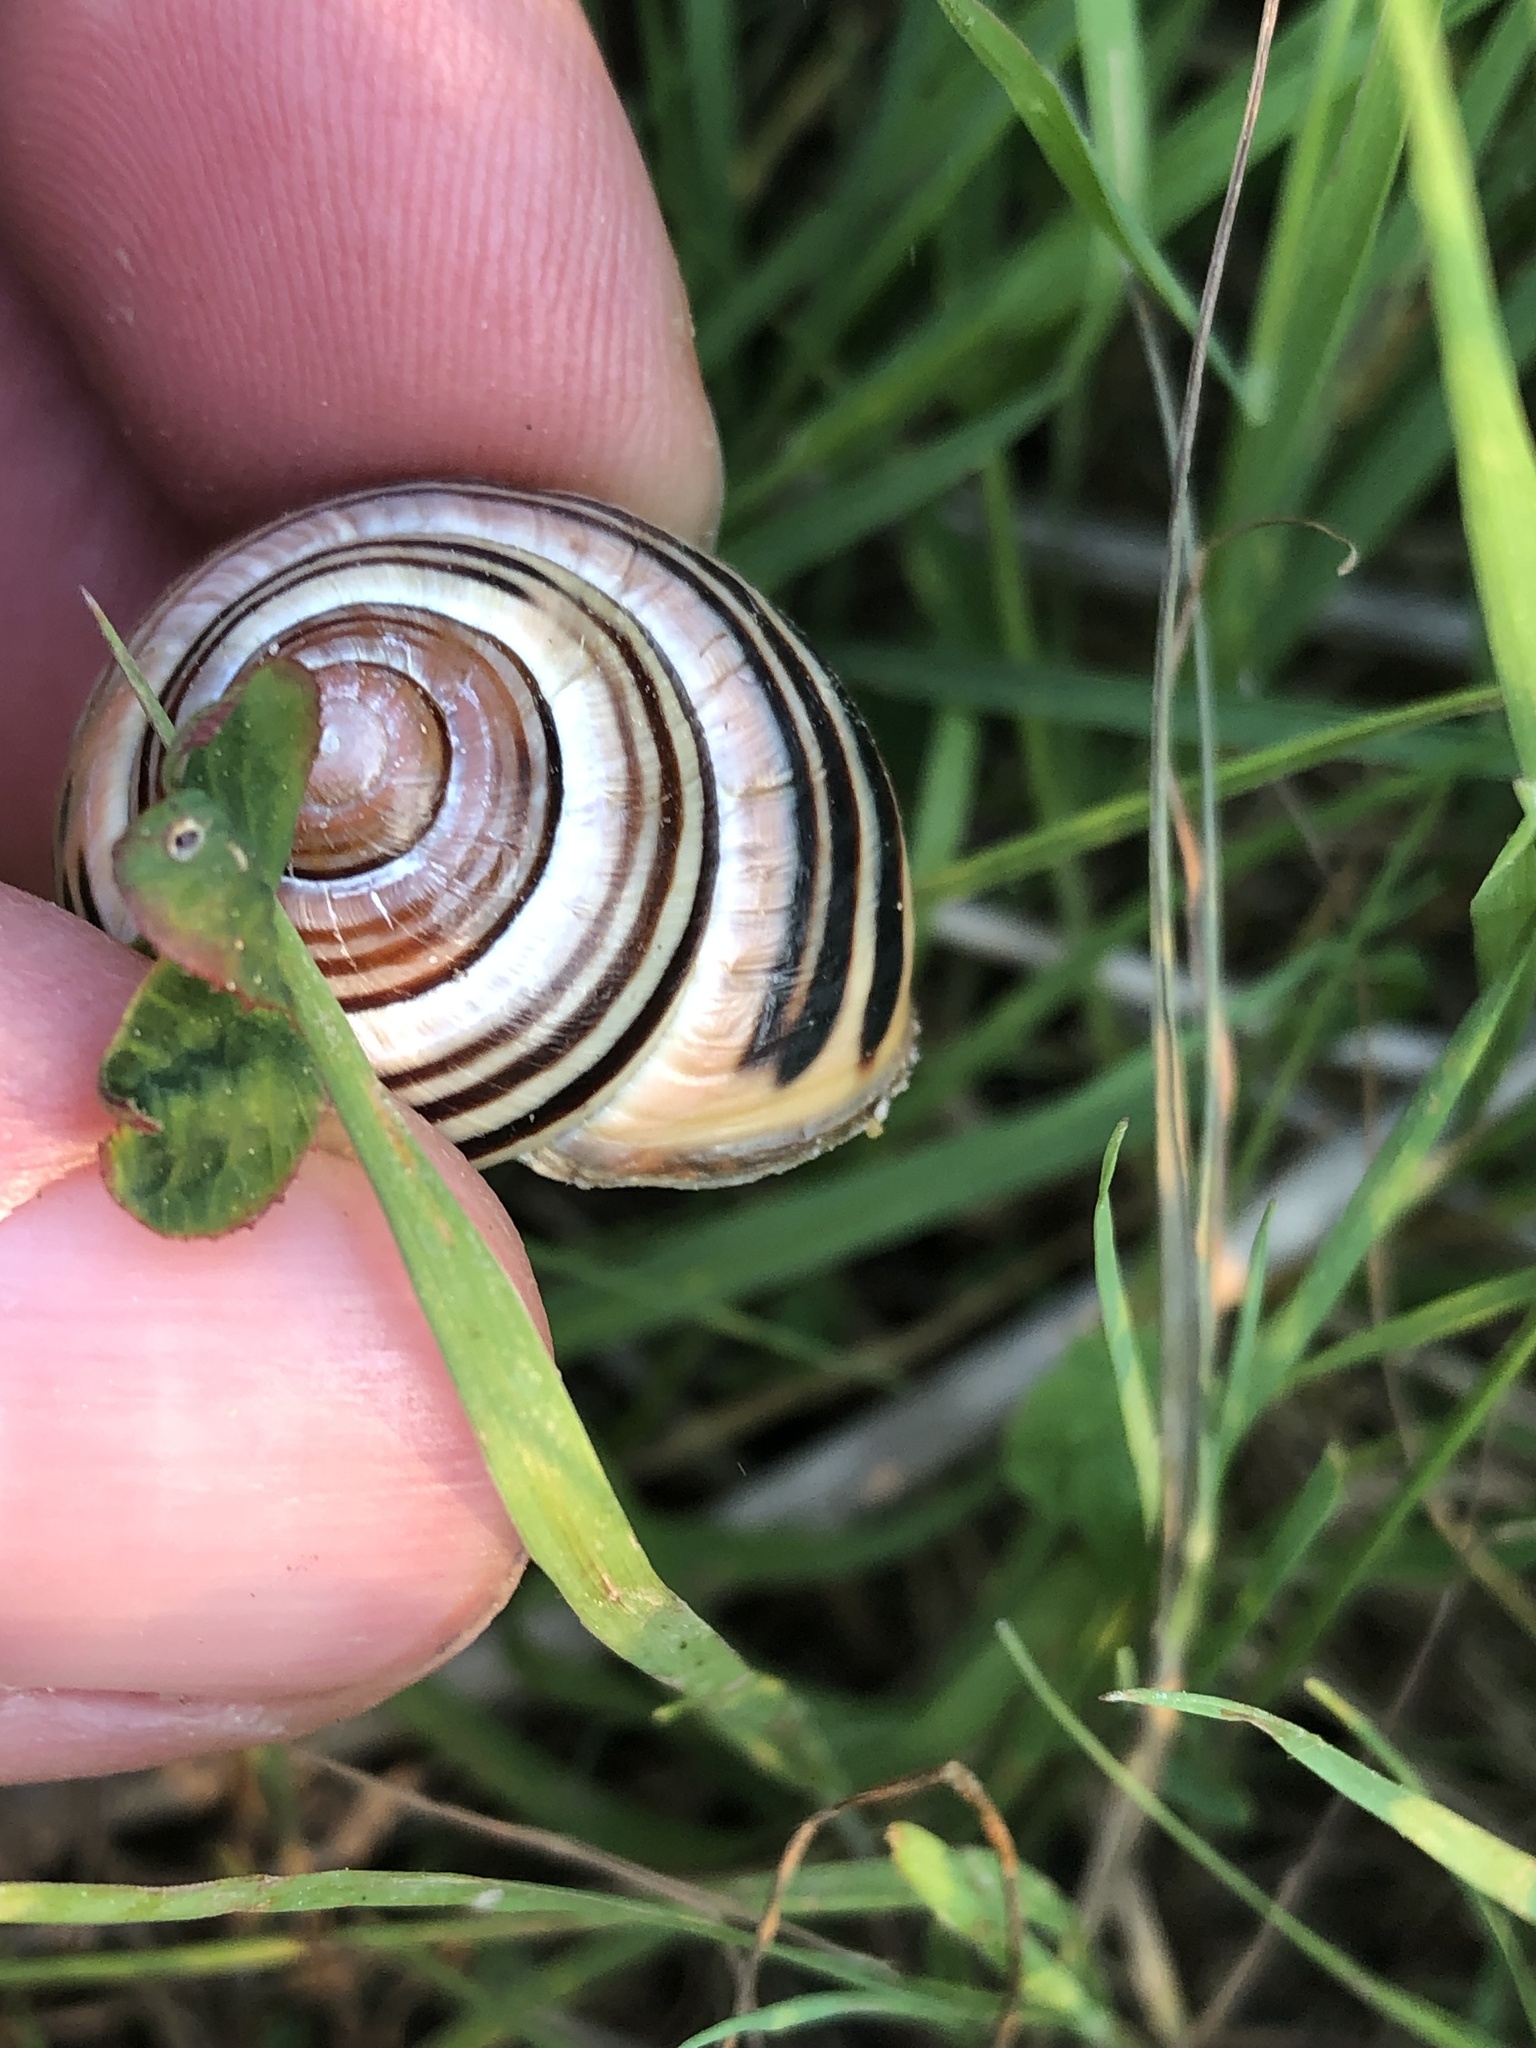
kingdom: Animalia
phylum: Mollusca
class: Gastropoda
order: Stylommatophora
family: Helicidae
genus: Cepaea
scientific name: Cepaea nemoralis
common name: Grovesnail
